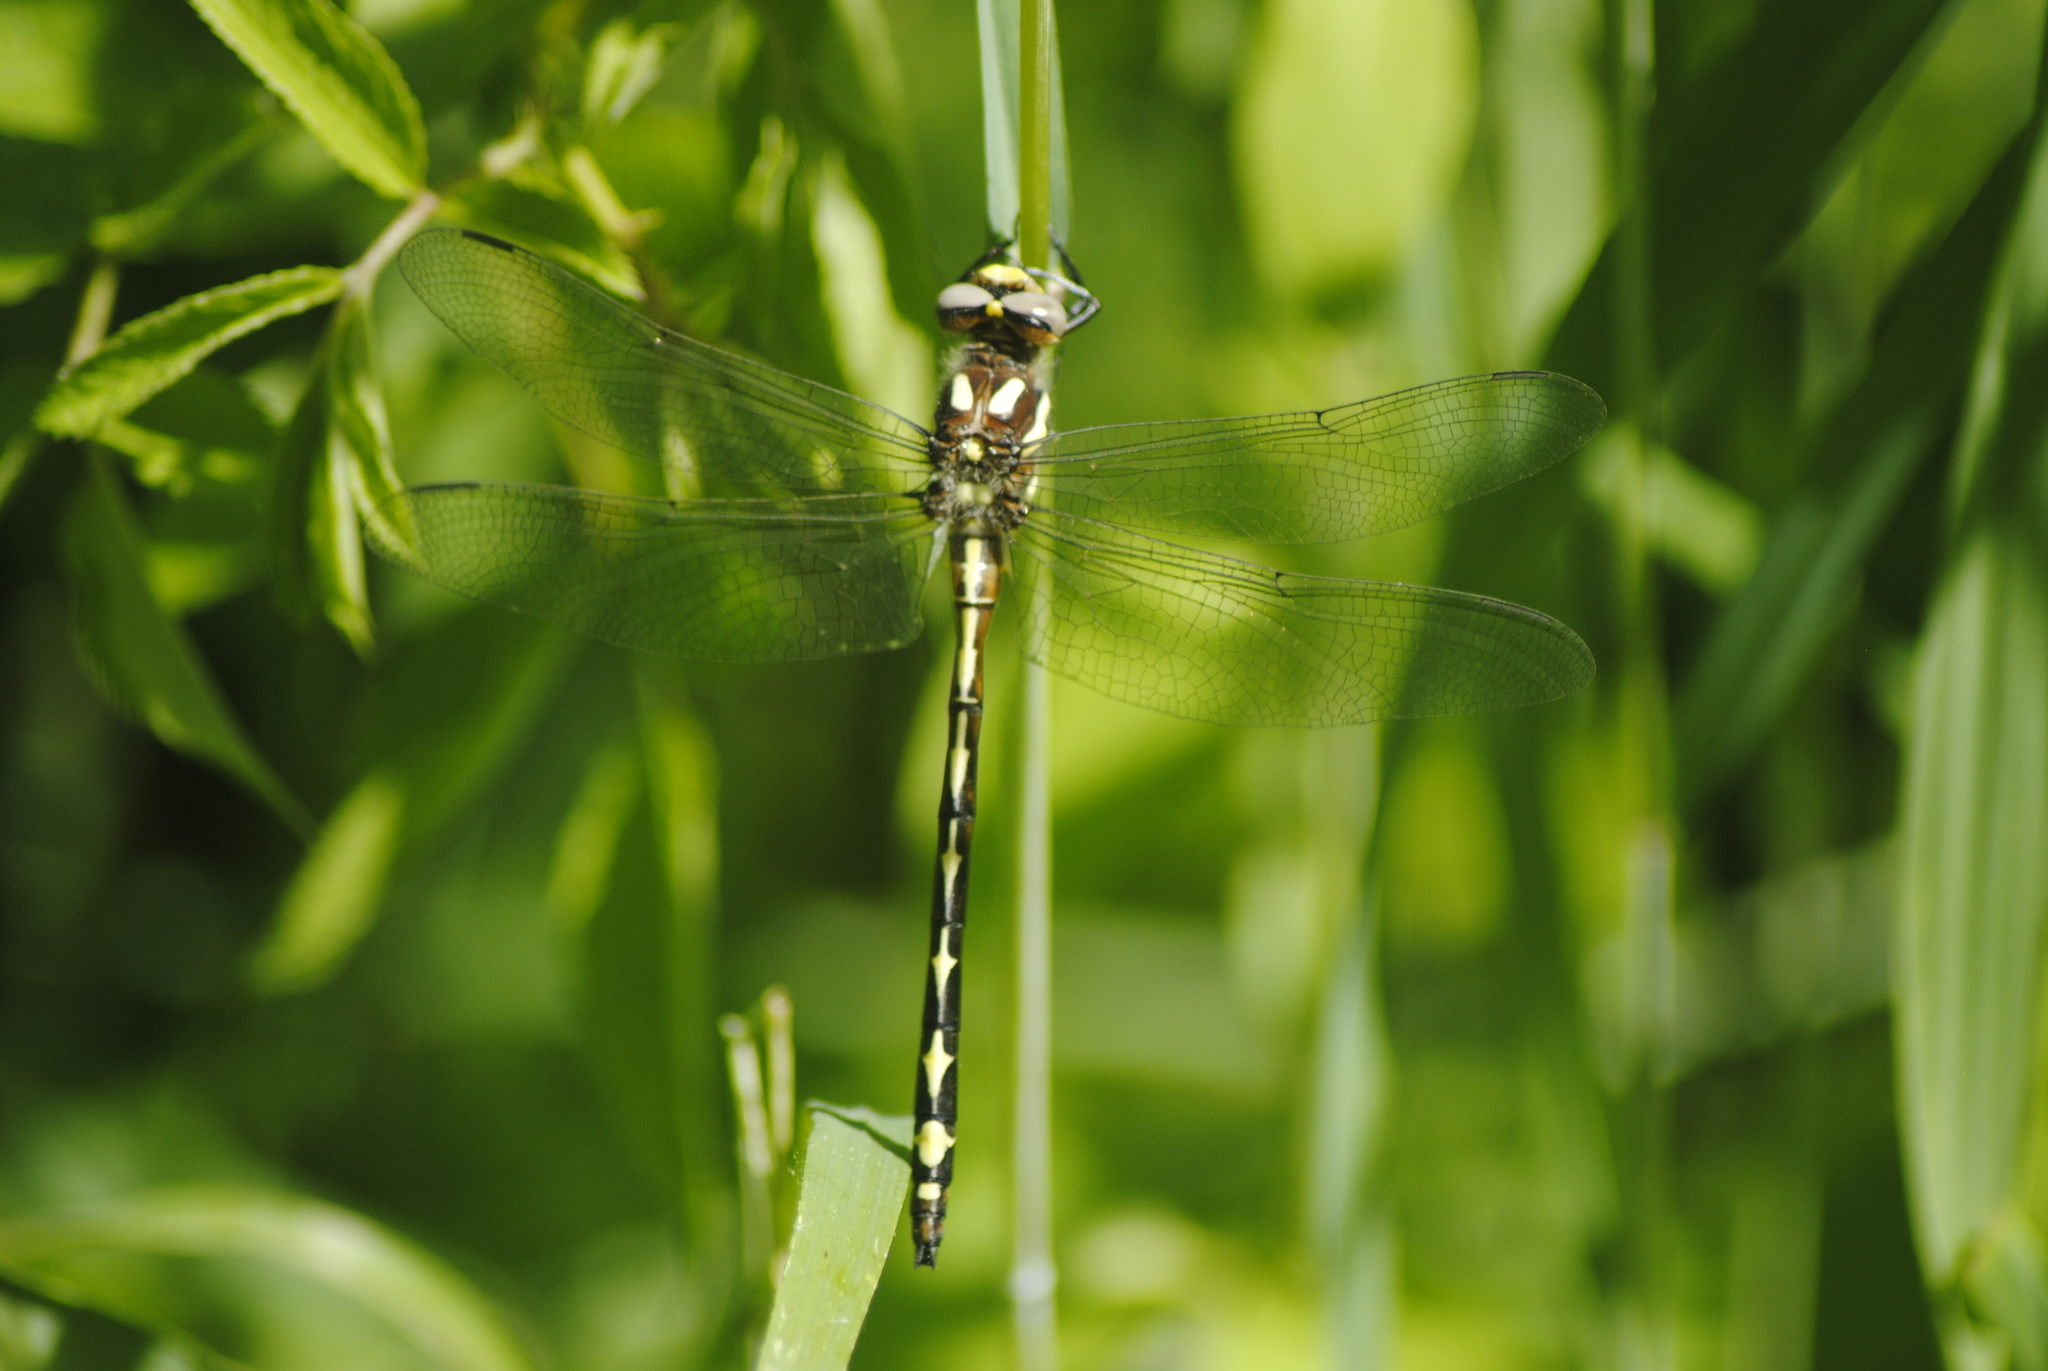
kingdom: Animalia
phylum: Arthropoda
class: Insecta
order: Odonata
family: Cordulegastridae
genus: Cordulegaster
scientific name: Cordulegaster obliqua
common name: Arrowhead spiketail
